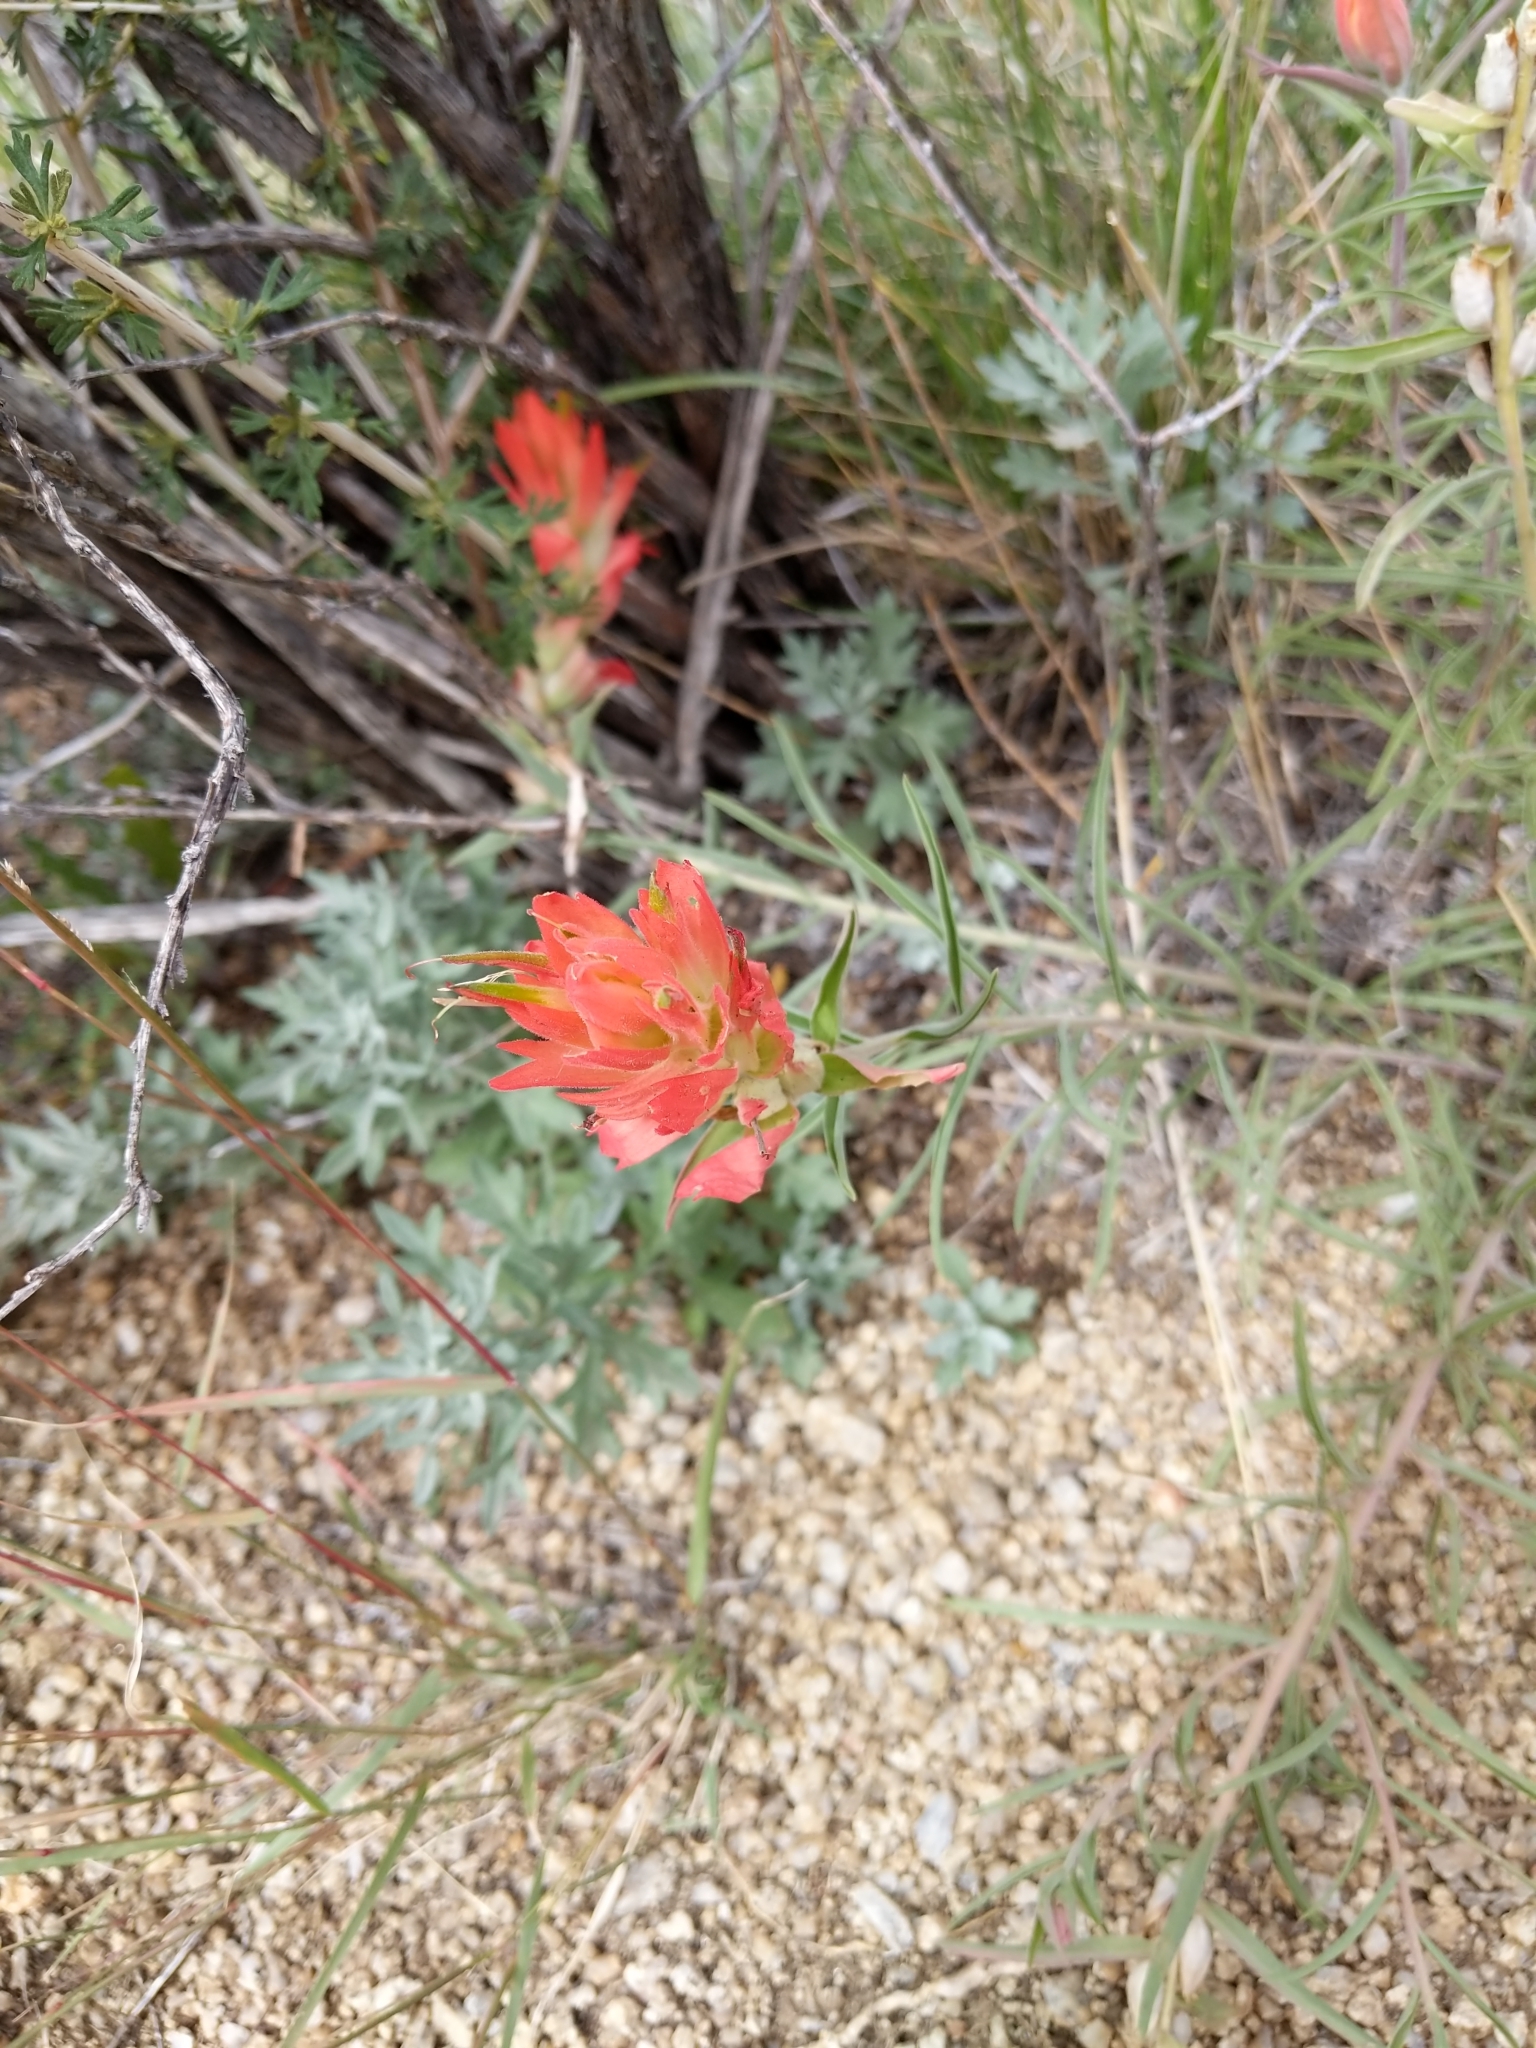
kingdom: Plantae
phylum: Tracheophyta
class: Magnoliopsida
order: Lamiales
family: Orobanchaceae
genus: Castilleja
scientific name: Castilleja integra
